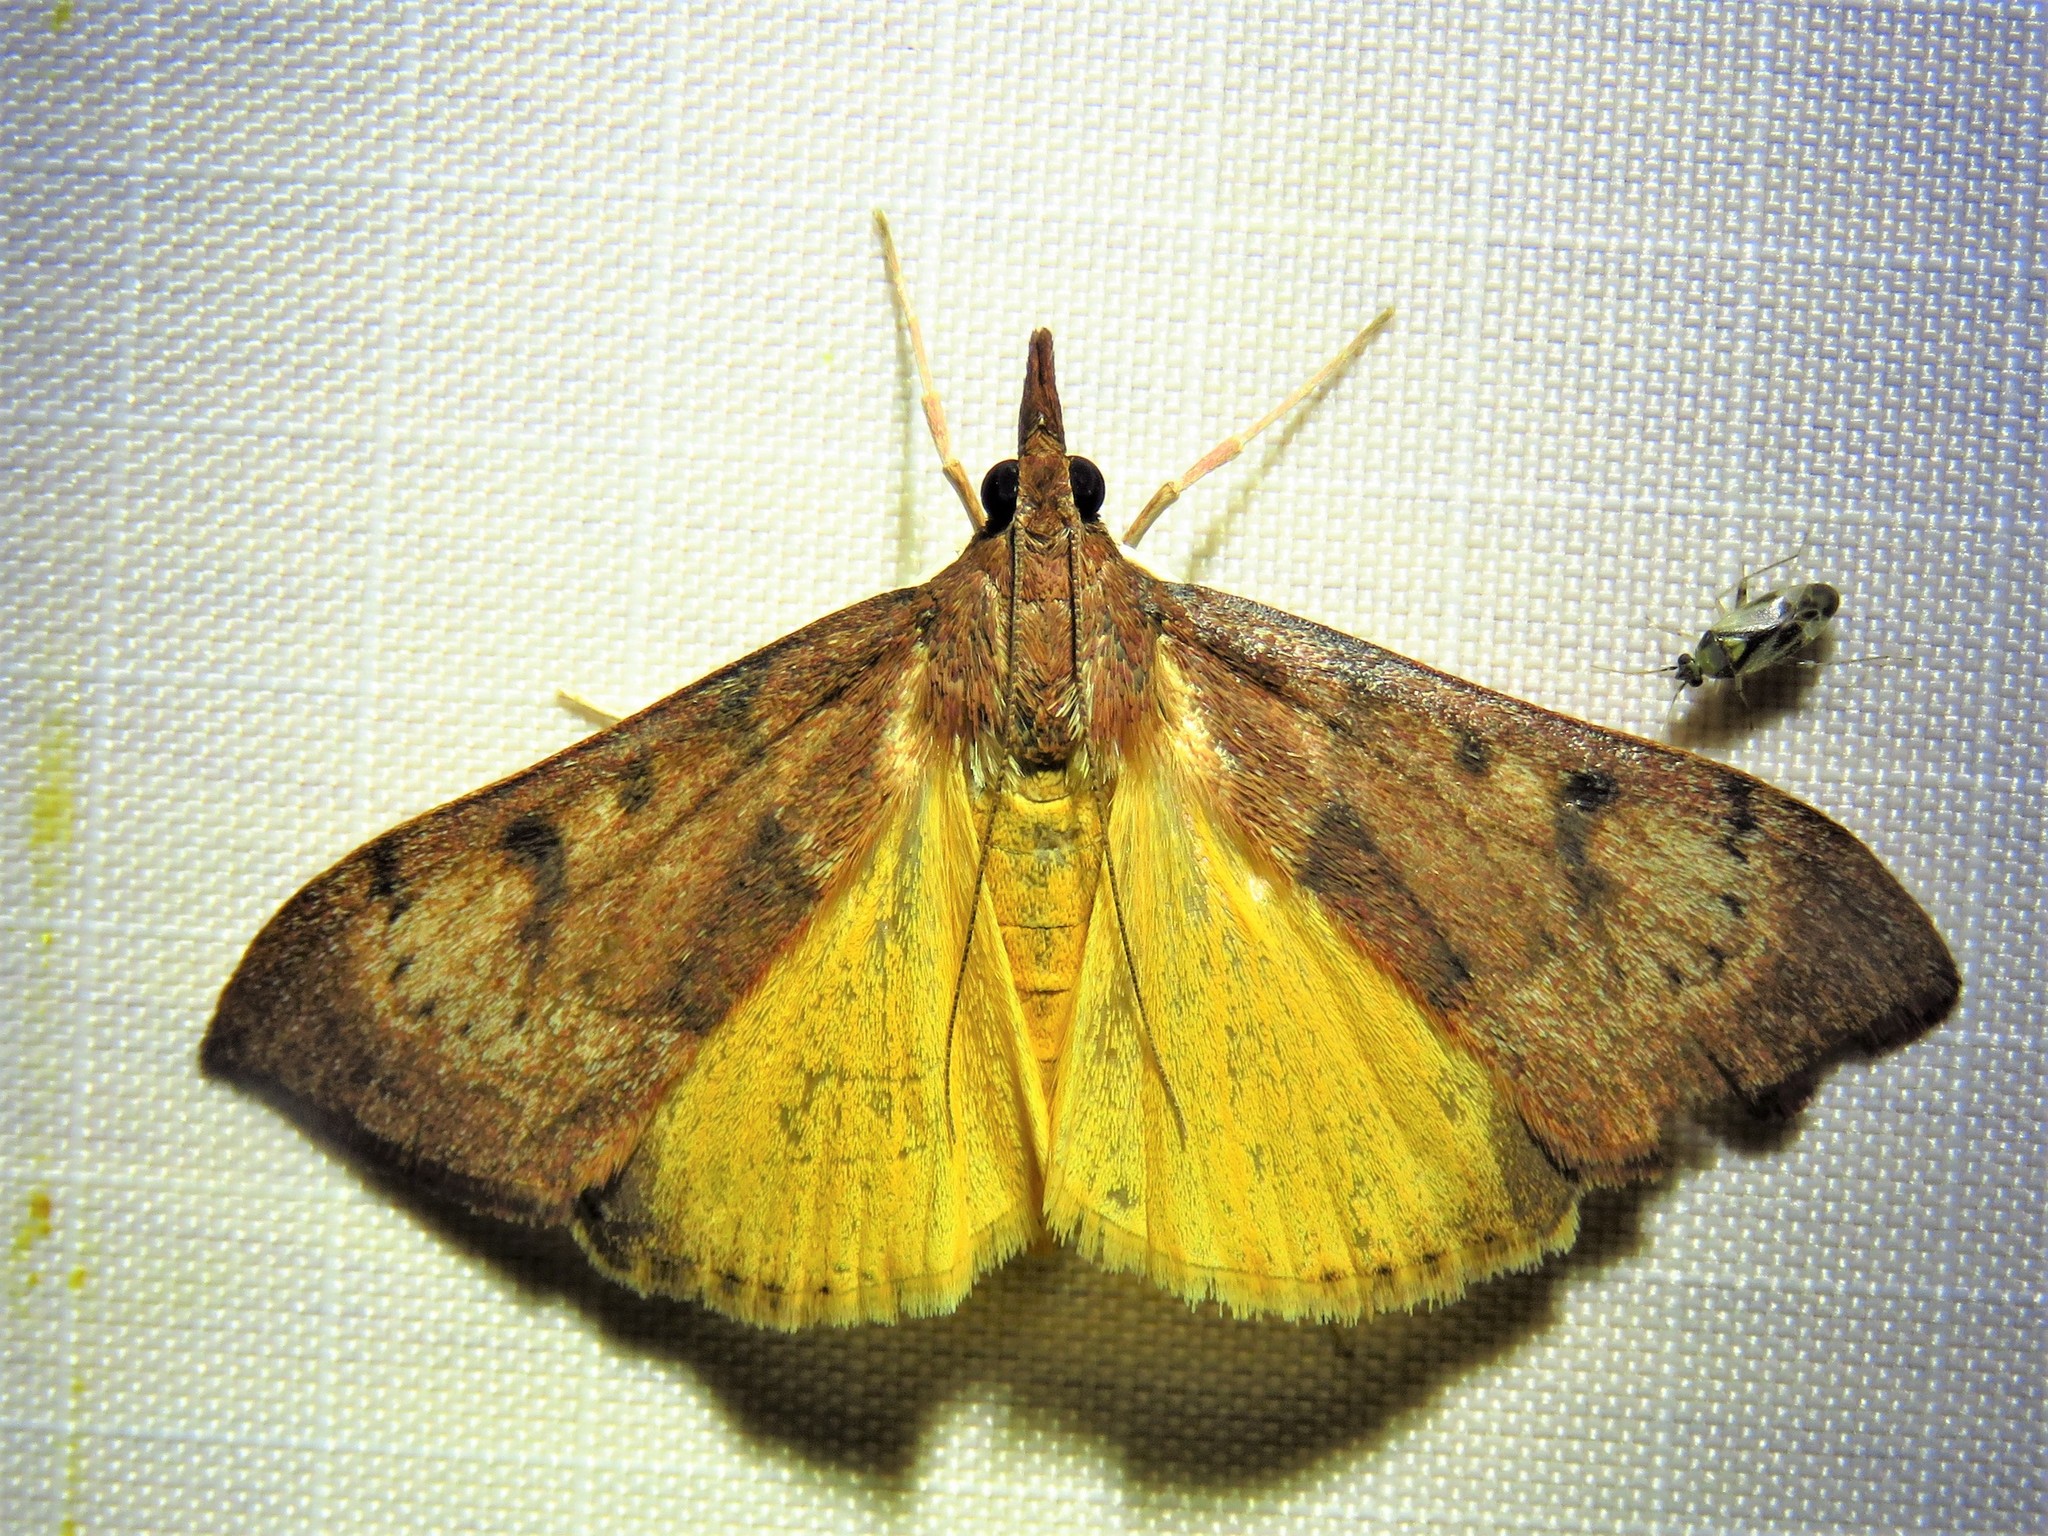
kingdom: Animalia
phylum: Arthropoda
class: Insecta
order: Lepidoptera
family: Crambidae
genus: Uresiphita
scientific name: Uresiphita reversalis
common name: Genista broom moth
